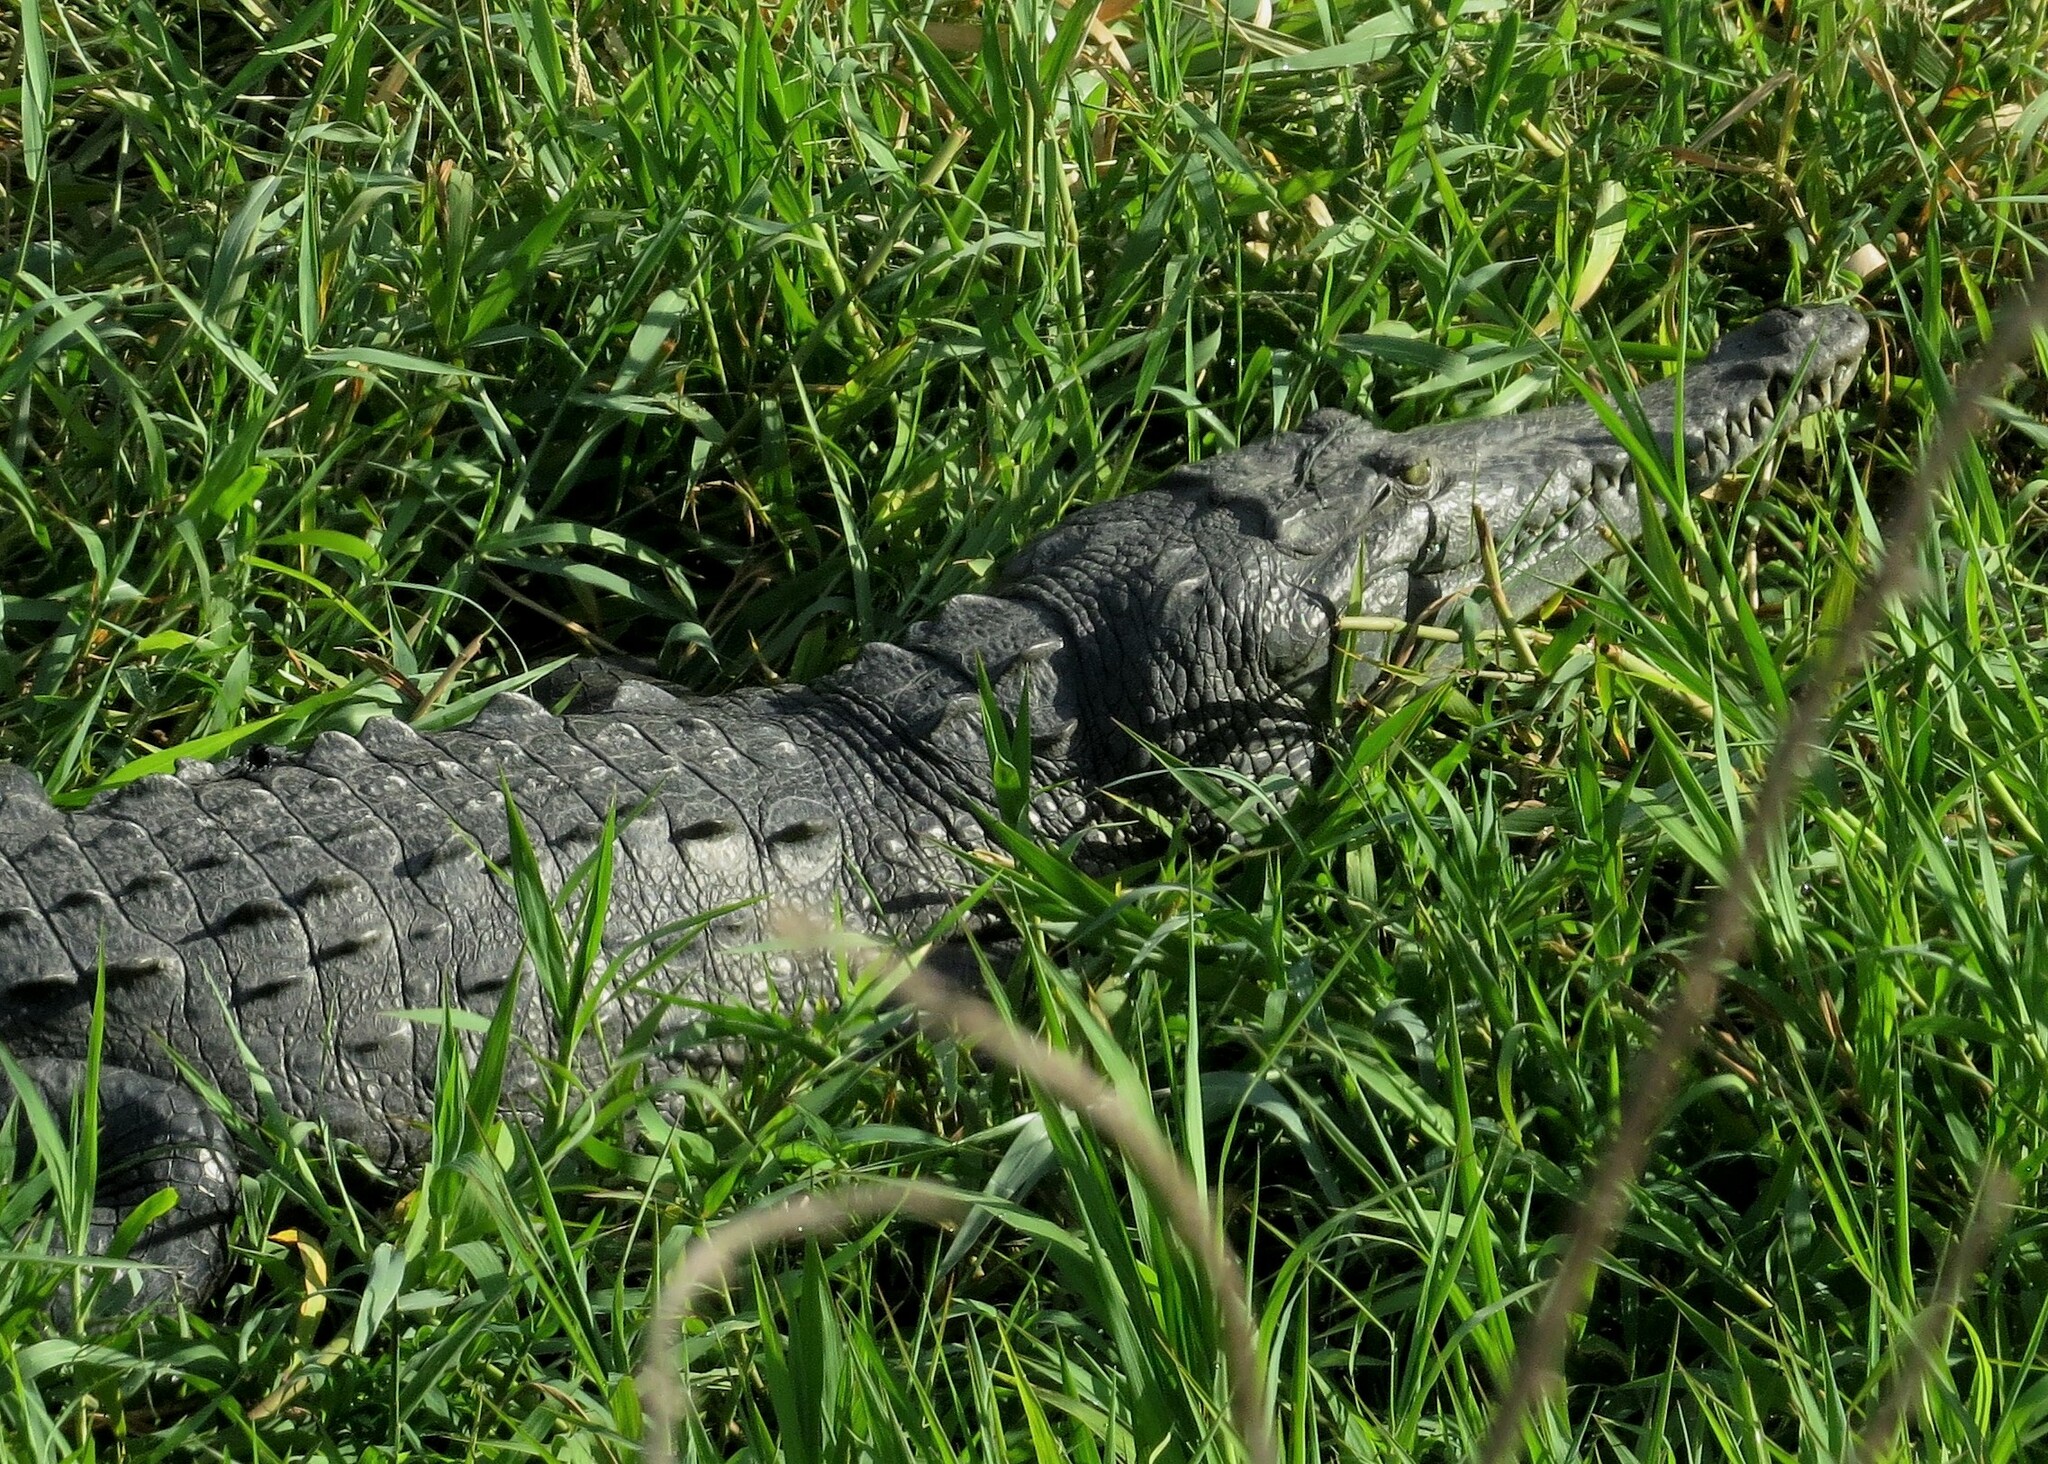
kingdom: Animalia
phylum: Chordata
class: Crocodylia
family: Crocodylidae
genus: Crocodylus
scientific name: Crocodylus acutus
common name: American crocodile
